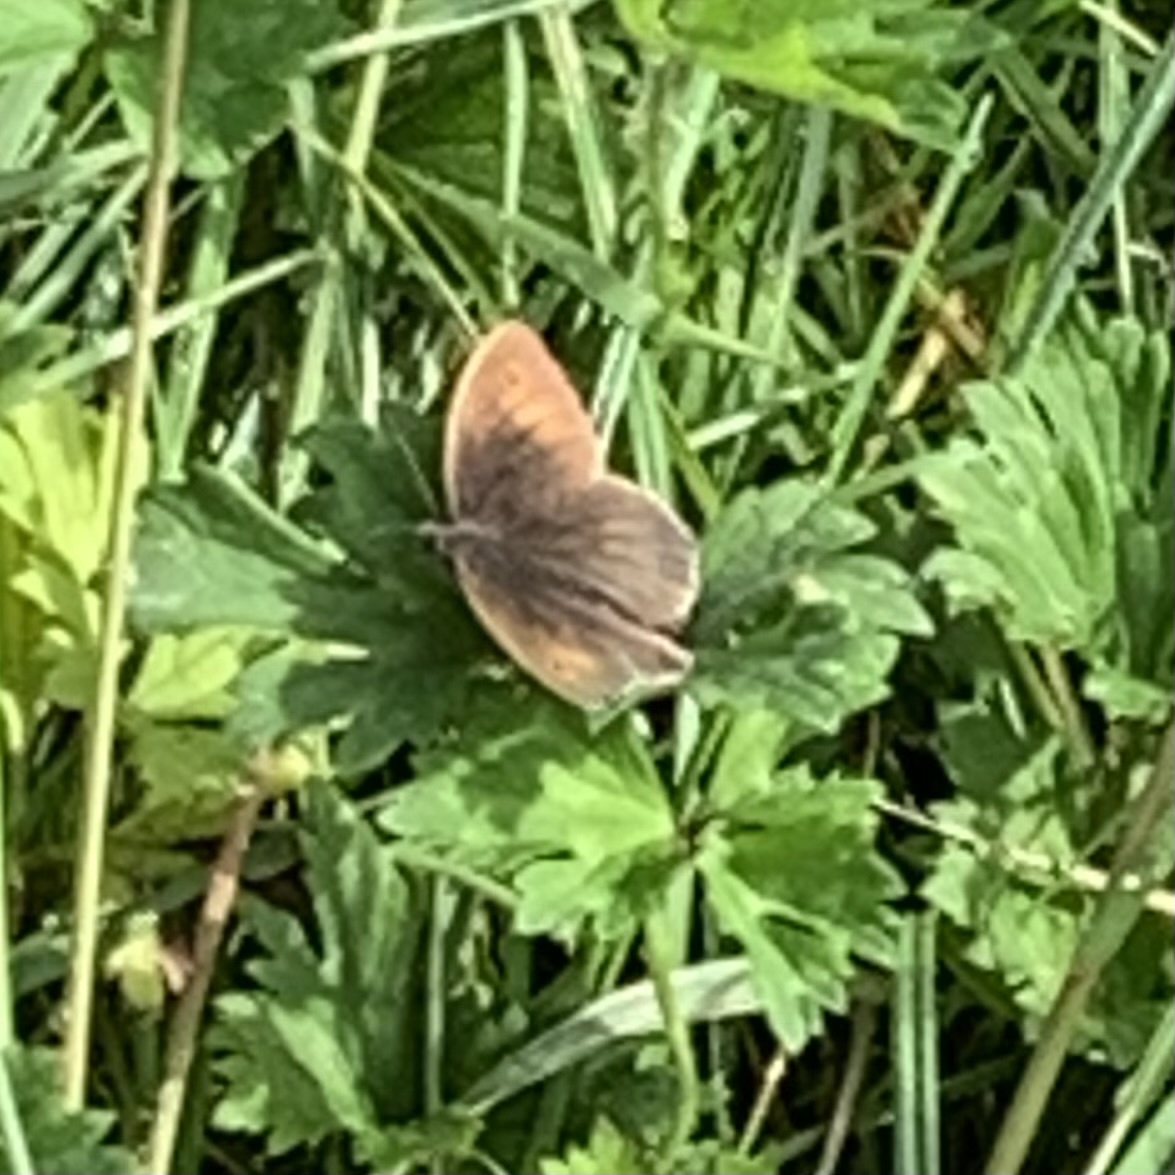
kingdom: Animalia
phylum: Arthropoda
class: Insecta
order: Lepidoptera
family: Nymphalidae
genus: Maniola
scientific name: Maniola jurtina
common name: Meadow brown
